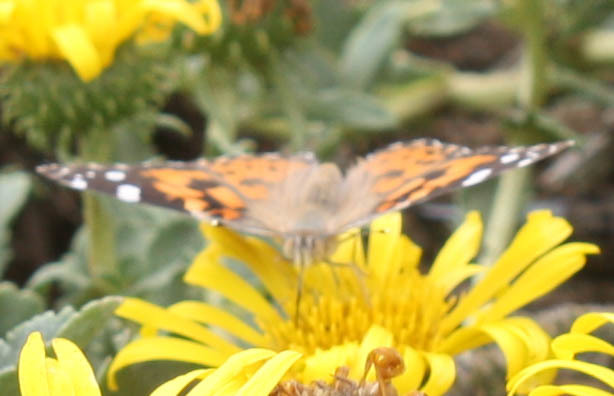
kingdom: Animalia
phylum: Arthropoda
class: Insecta
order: Lepidoptera
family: Nymphalidae
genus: Vanessa
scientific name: Vanessa cardui
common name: Painted lady
